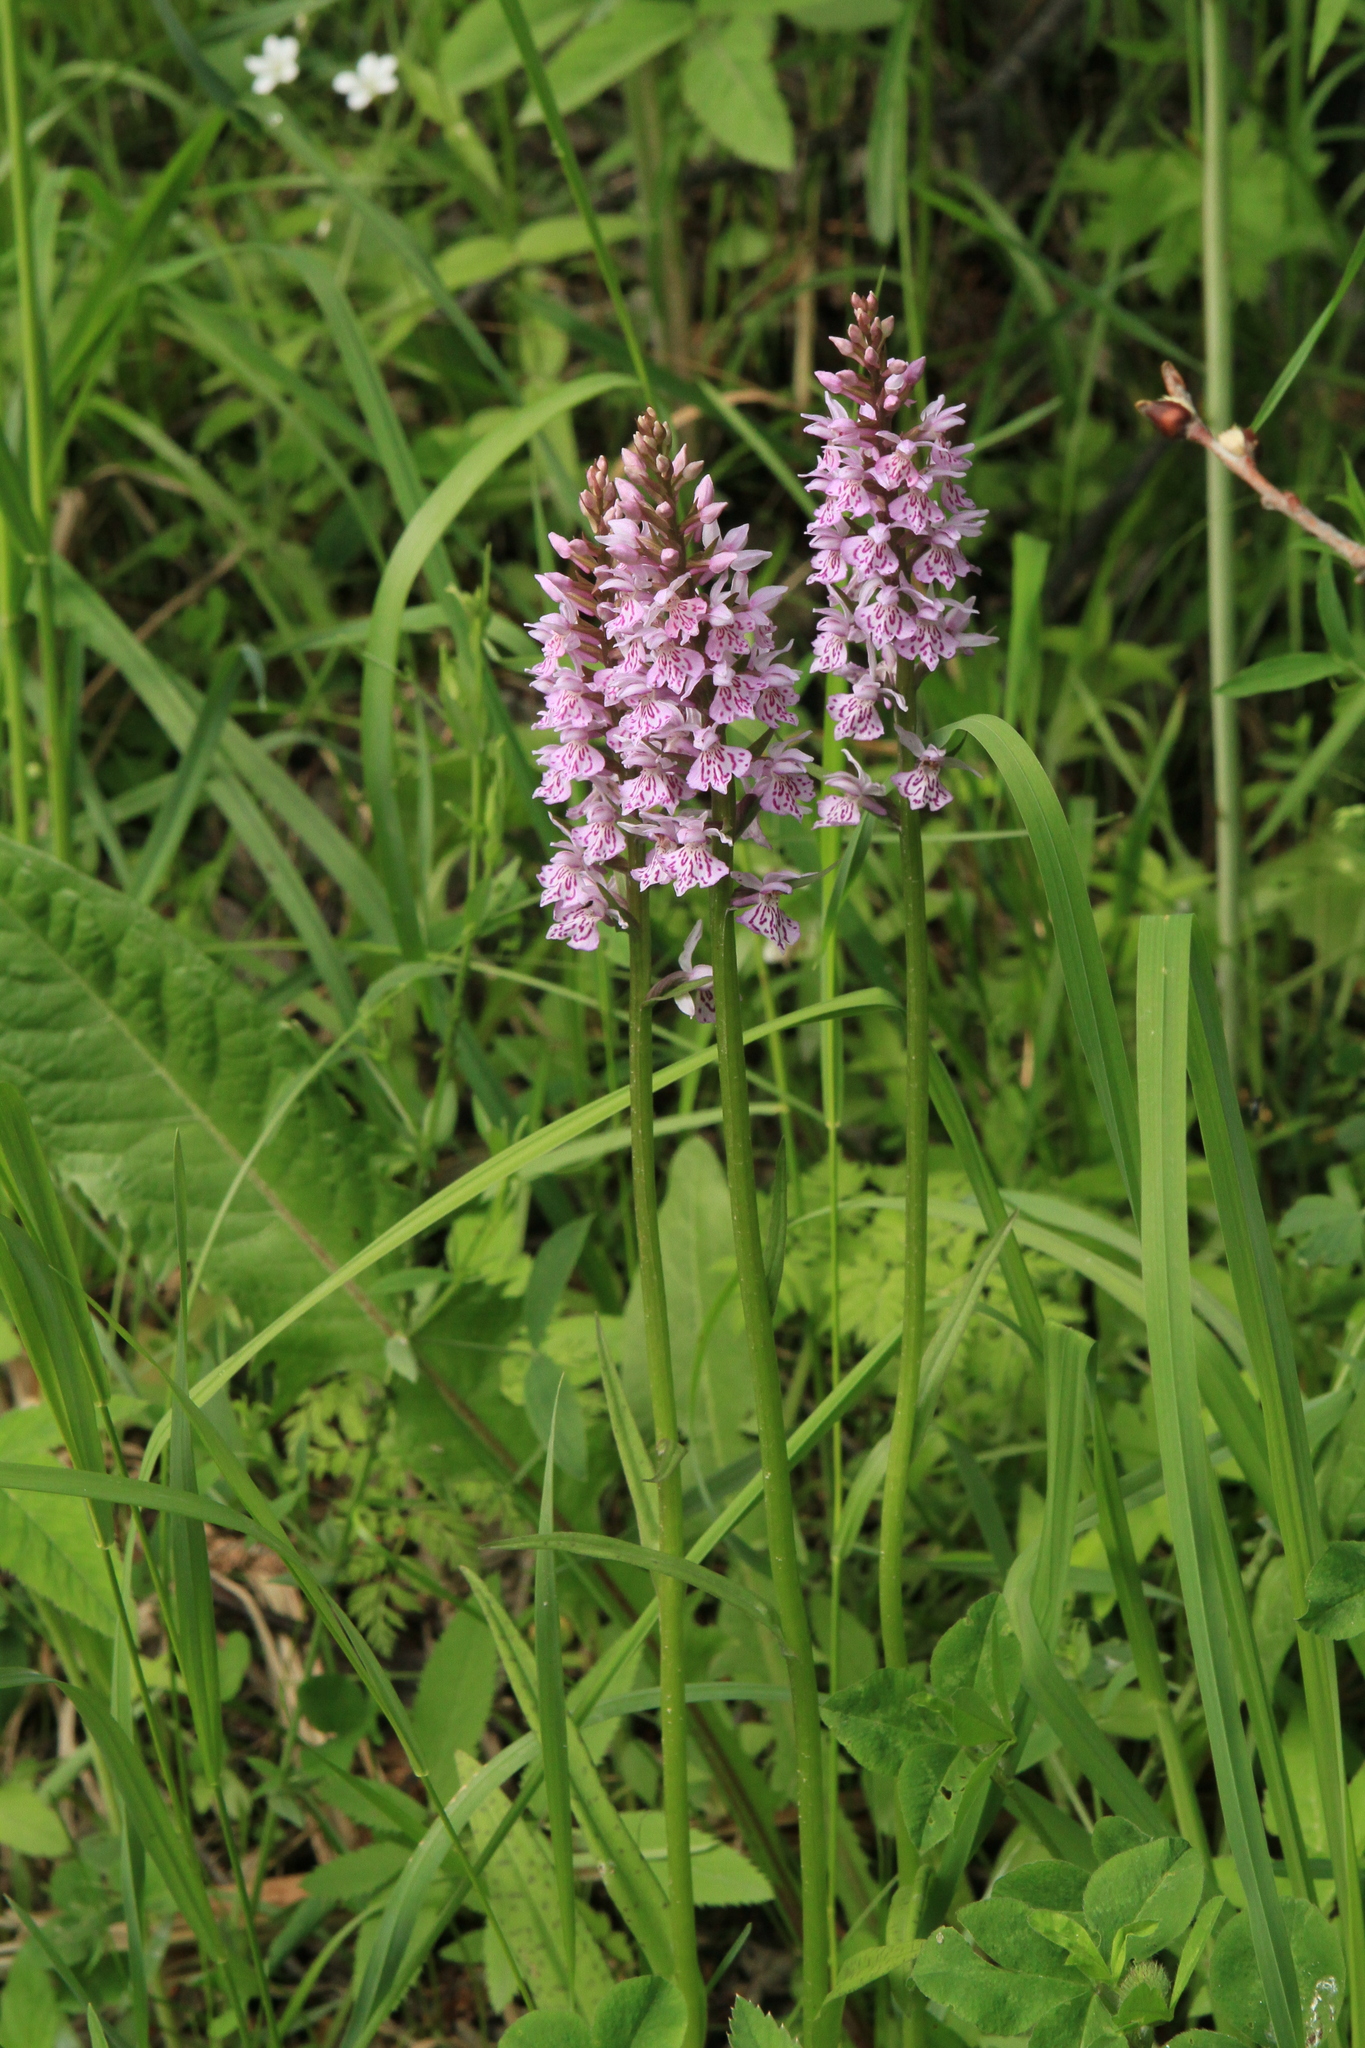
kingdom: Plantae
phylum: Tracheophyta
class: Liliopsida
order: Asparagales
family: Orchidaceae
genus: Dactylorhiza
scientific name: Dactylorhiza maculata
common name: Heath spotted-orchid
